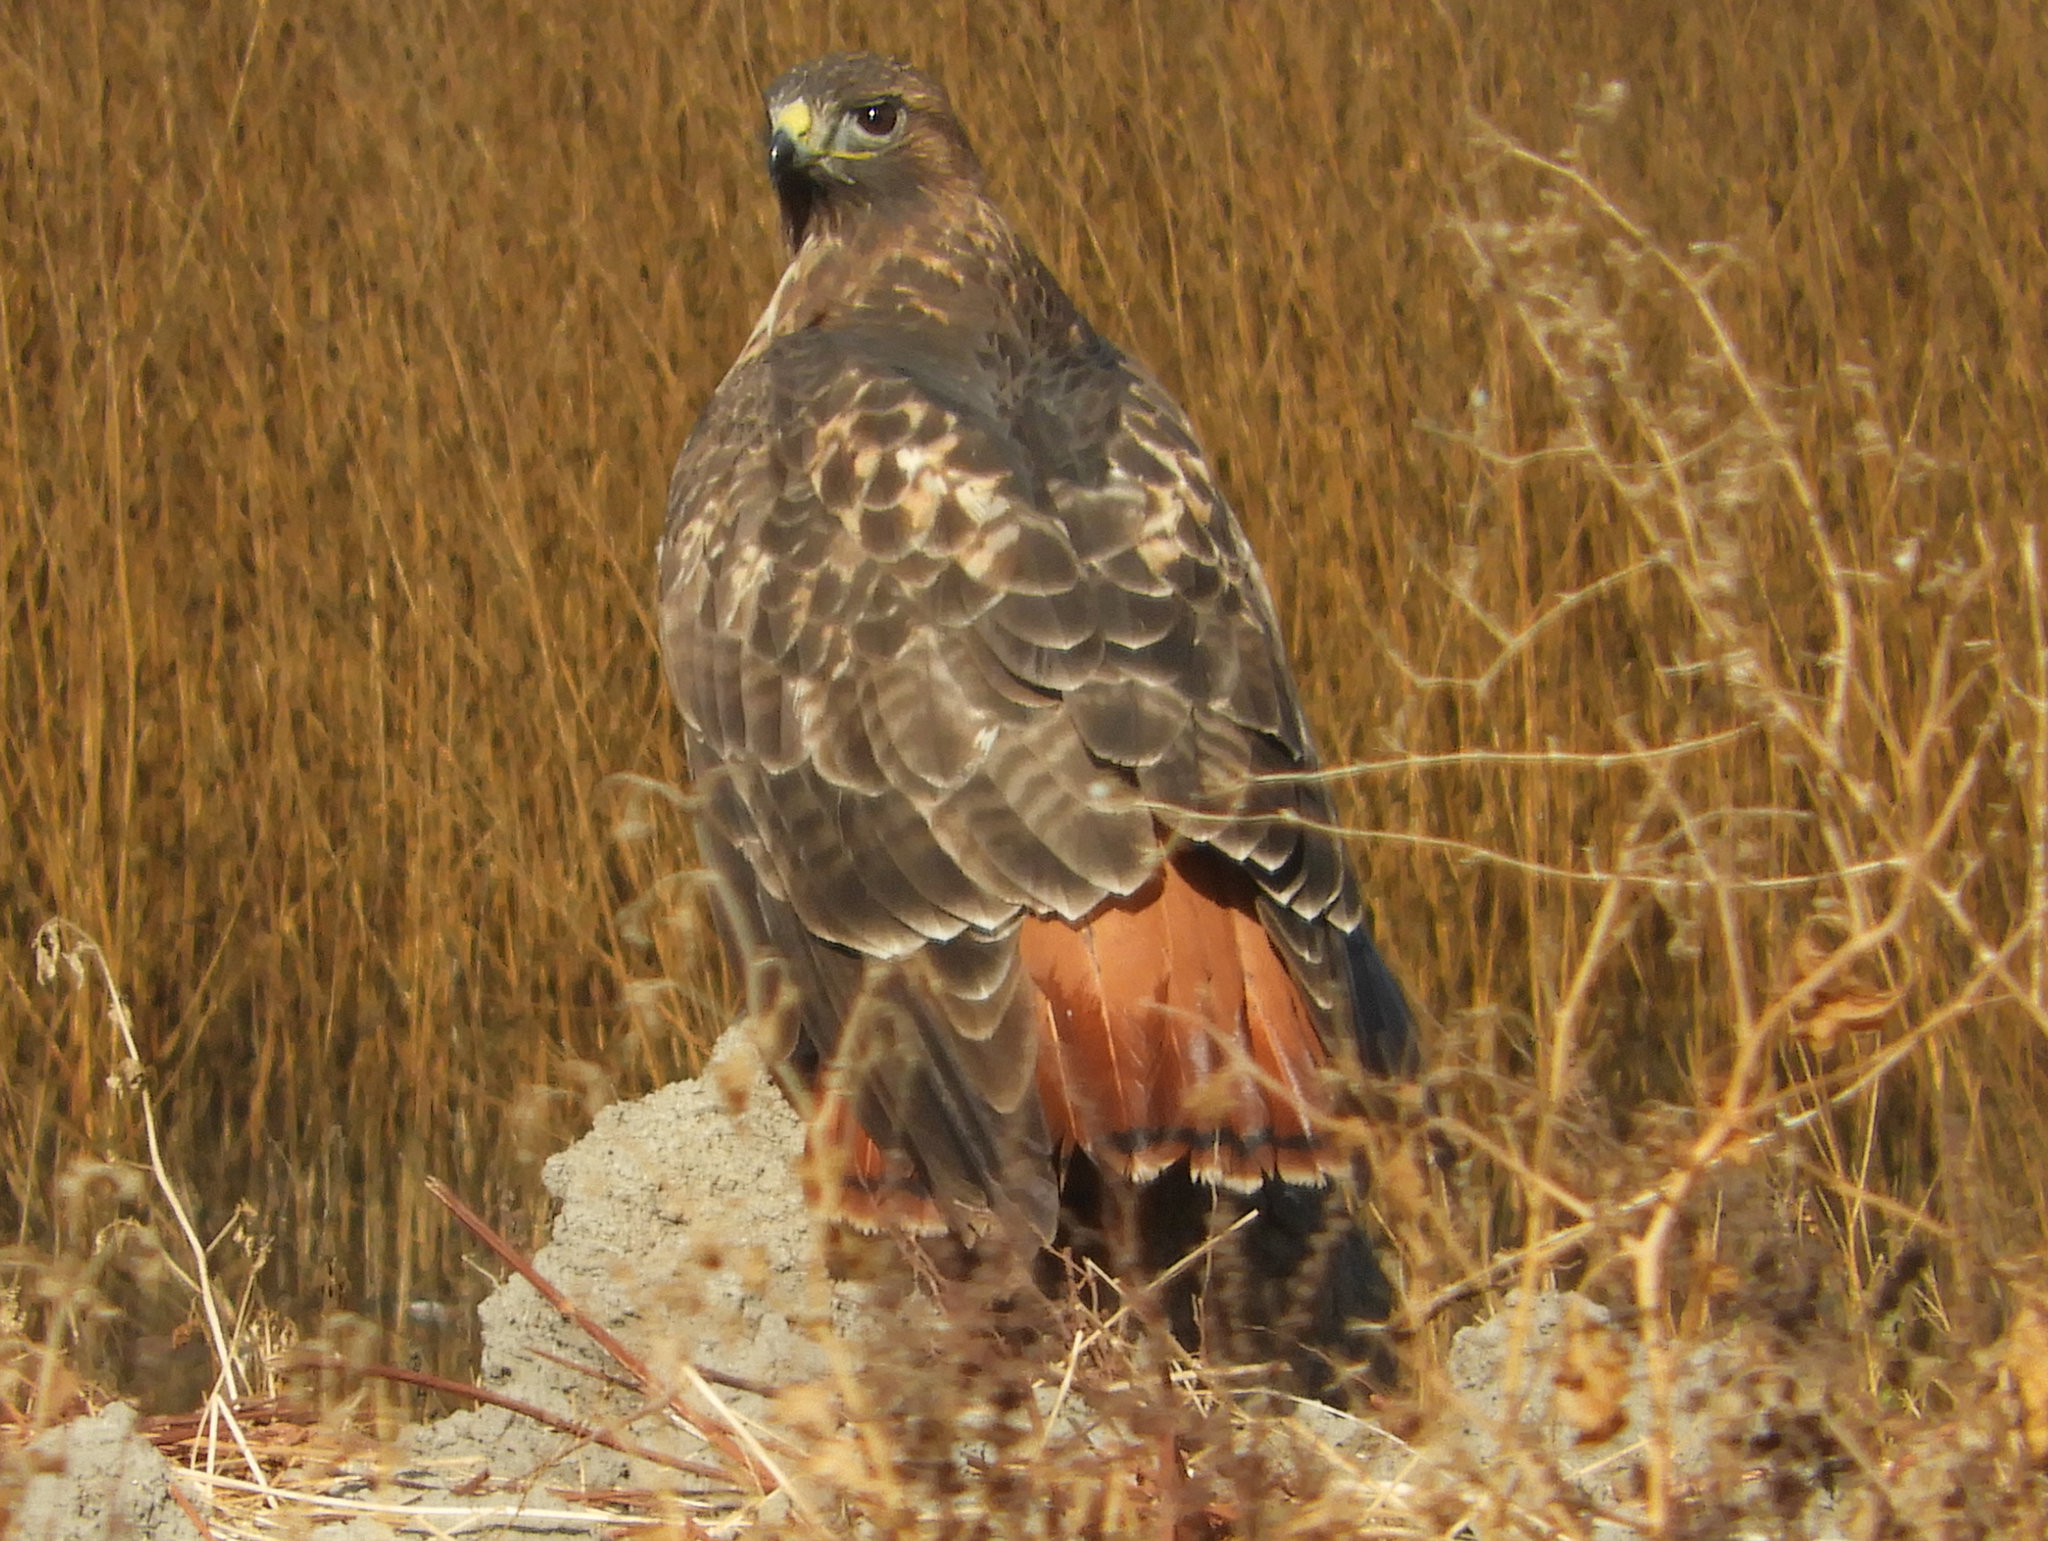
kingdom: Animalia
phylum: Chordata
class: Aves
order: Accipitriformes
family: Accipitridae
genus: Buteo
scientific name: Buteo jamaicensis
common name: Red-tailed hawk
